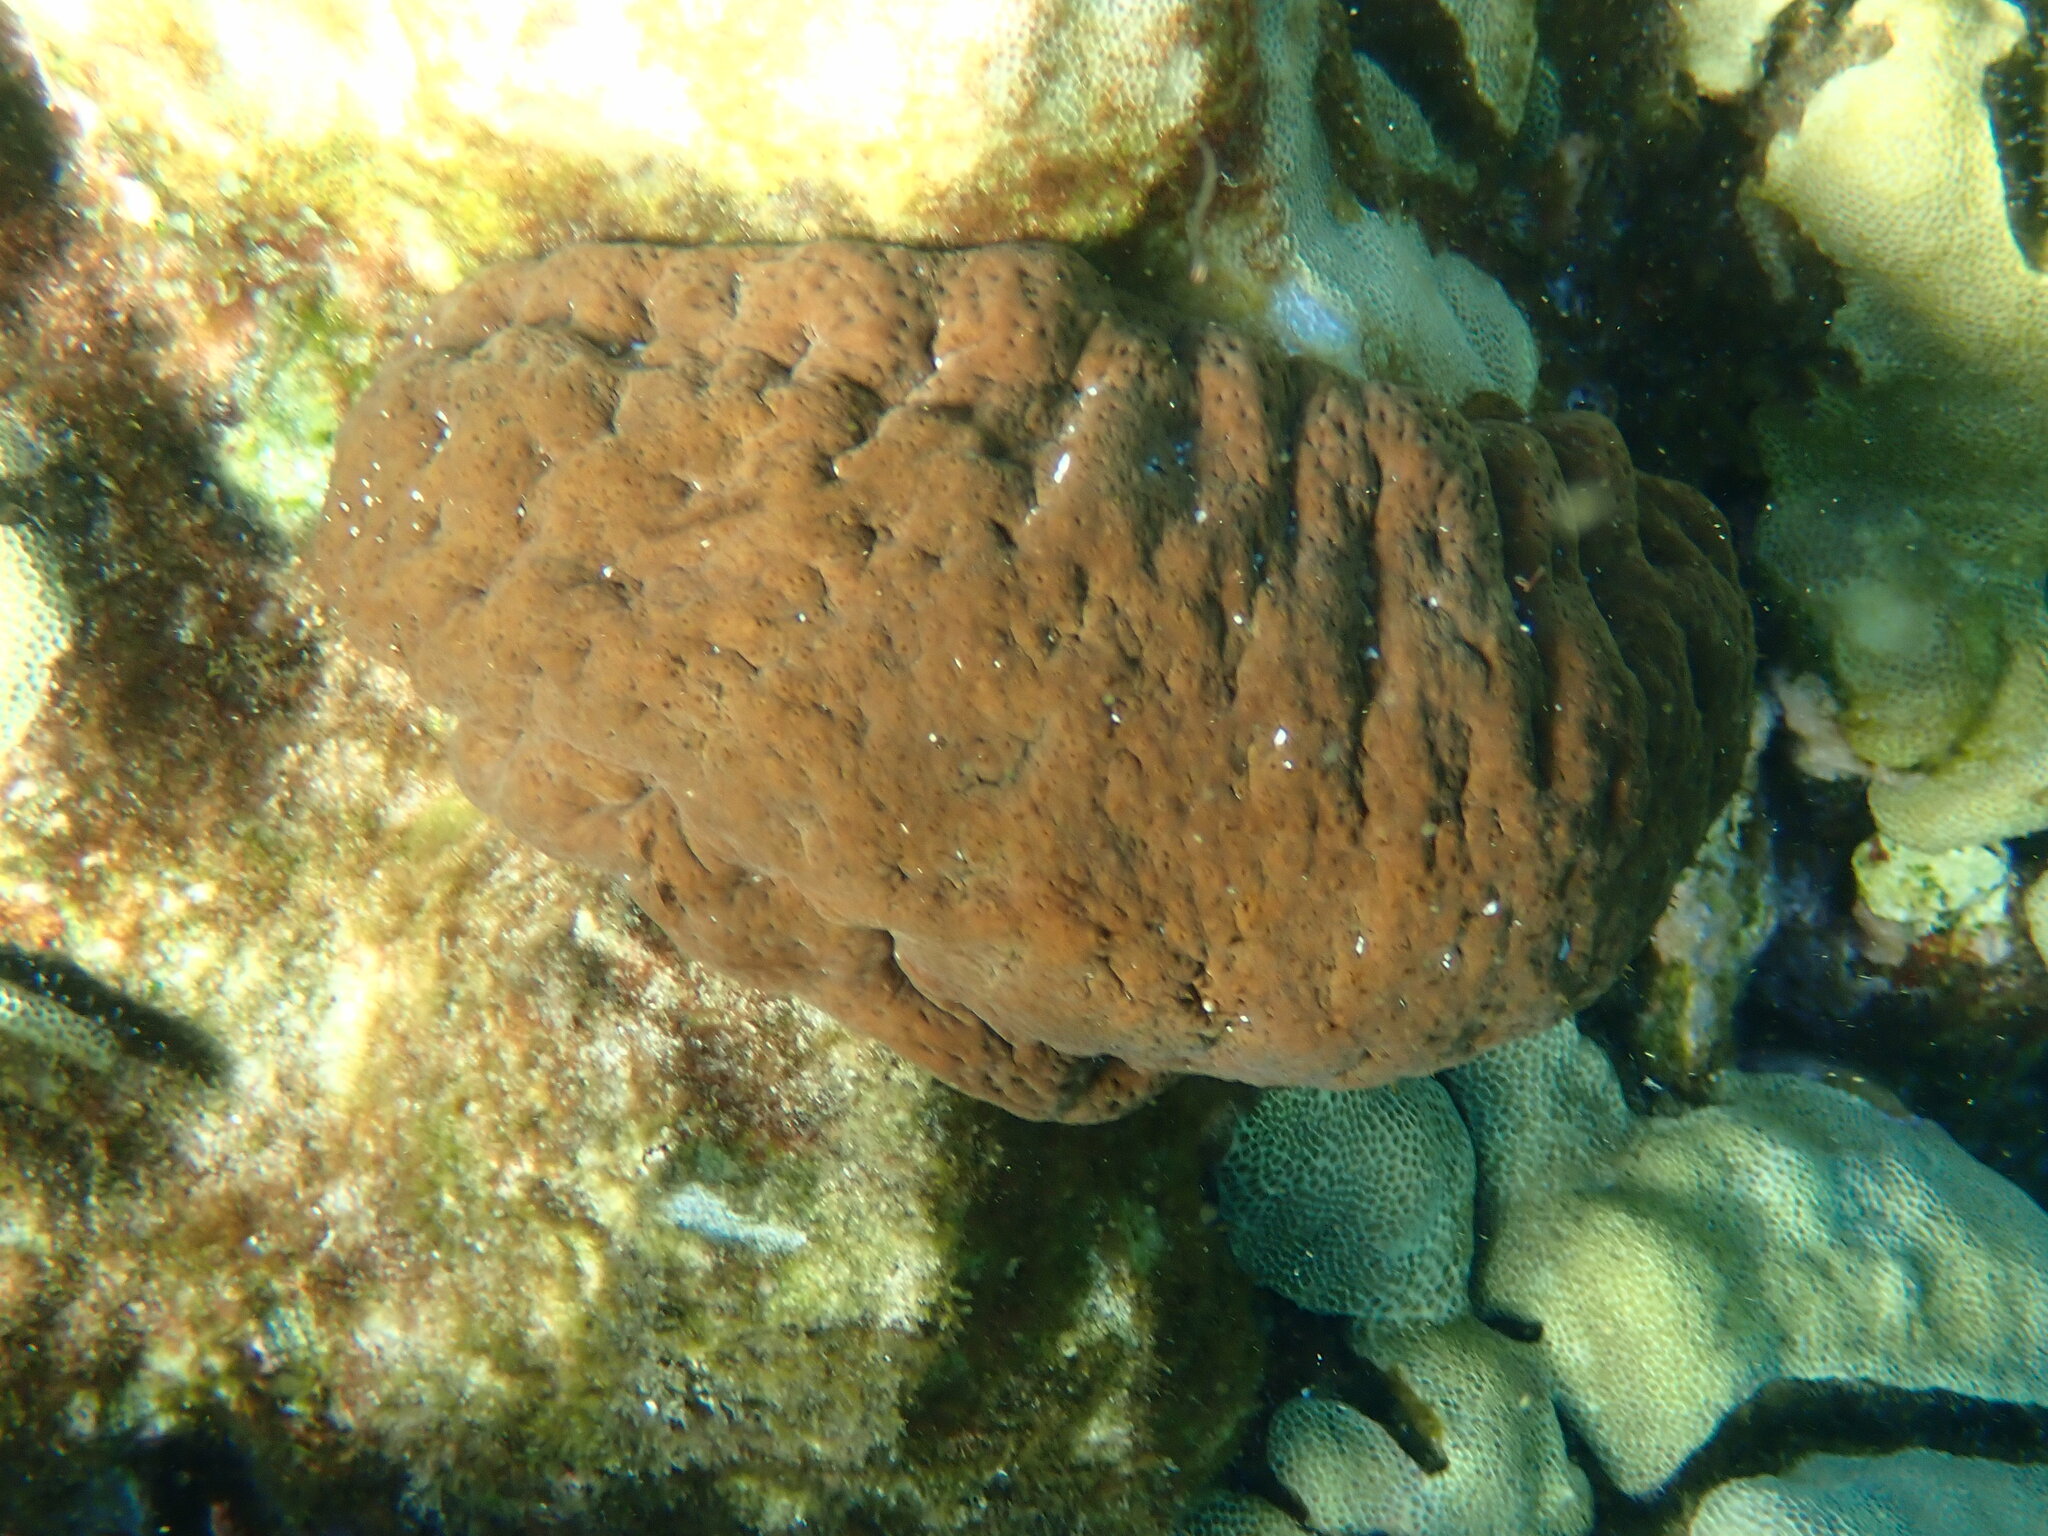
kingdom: Animalia
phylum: Echinodermata
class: Holothuroidea
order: Holothuriida
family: Holothuriidae
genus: Actinopyga
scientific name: Actinopyga varians
